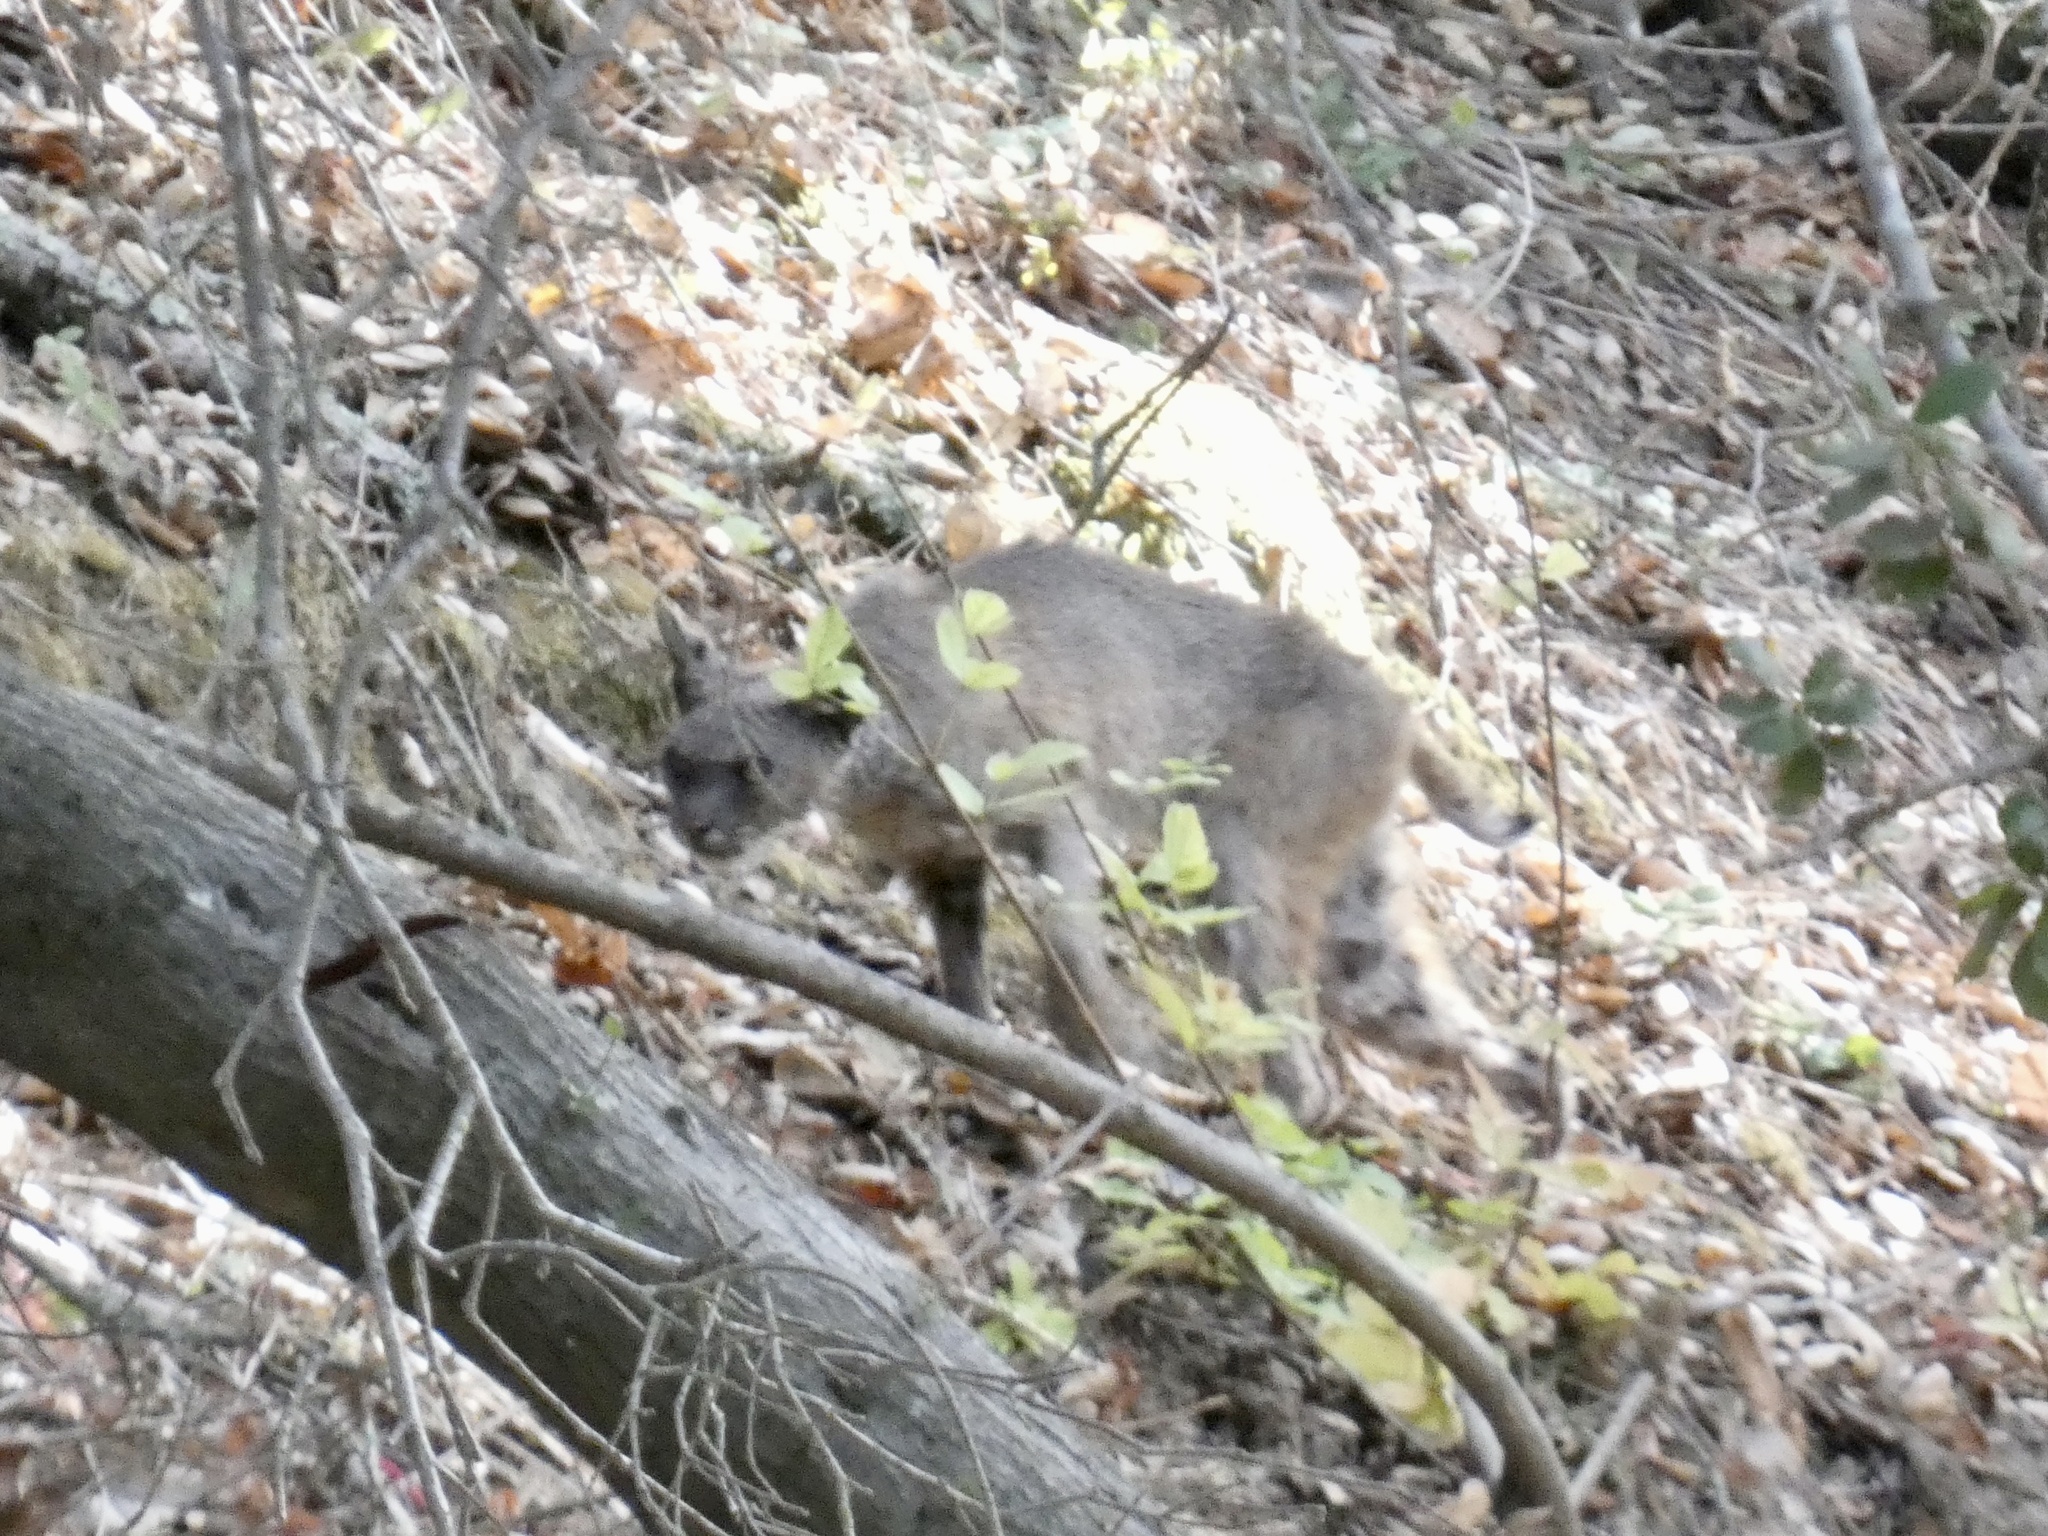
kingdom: Animalia
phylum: Chordata
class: Mammalia
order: Carnivora
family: Felidae
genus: Lynx
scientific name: Lynx rufus
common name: Bobcat
